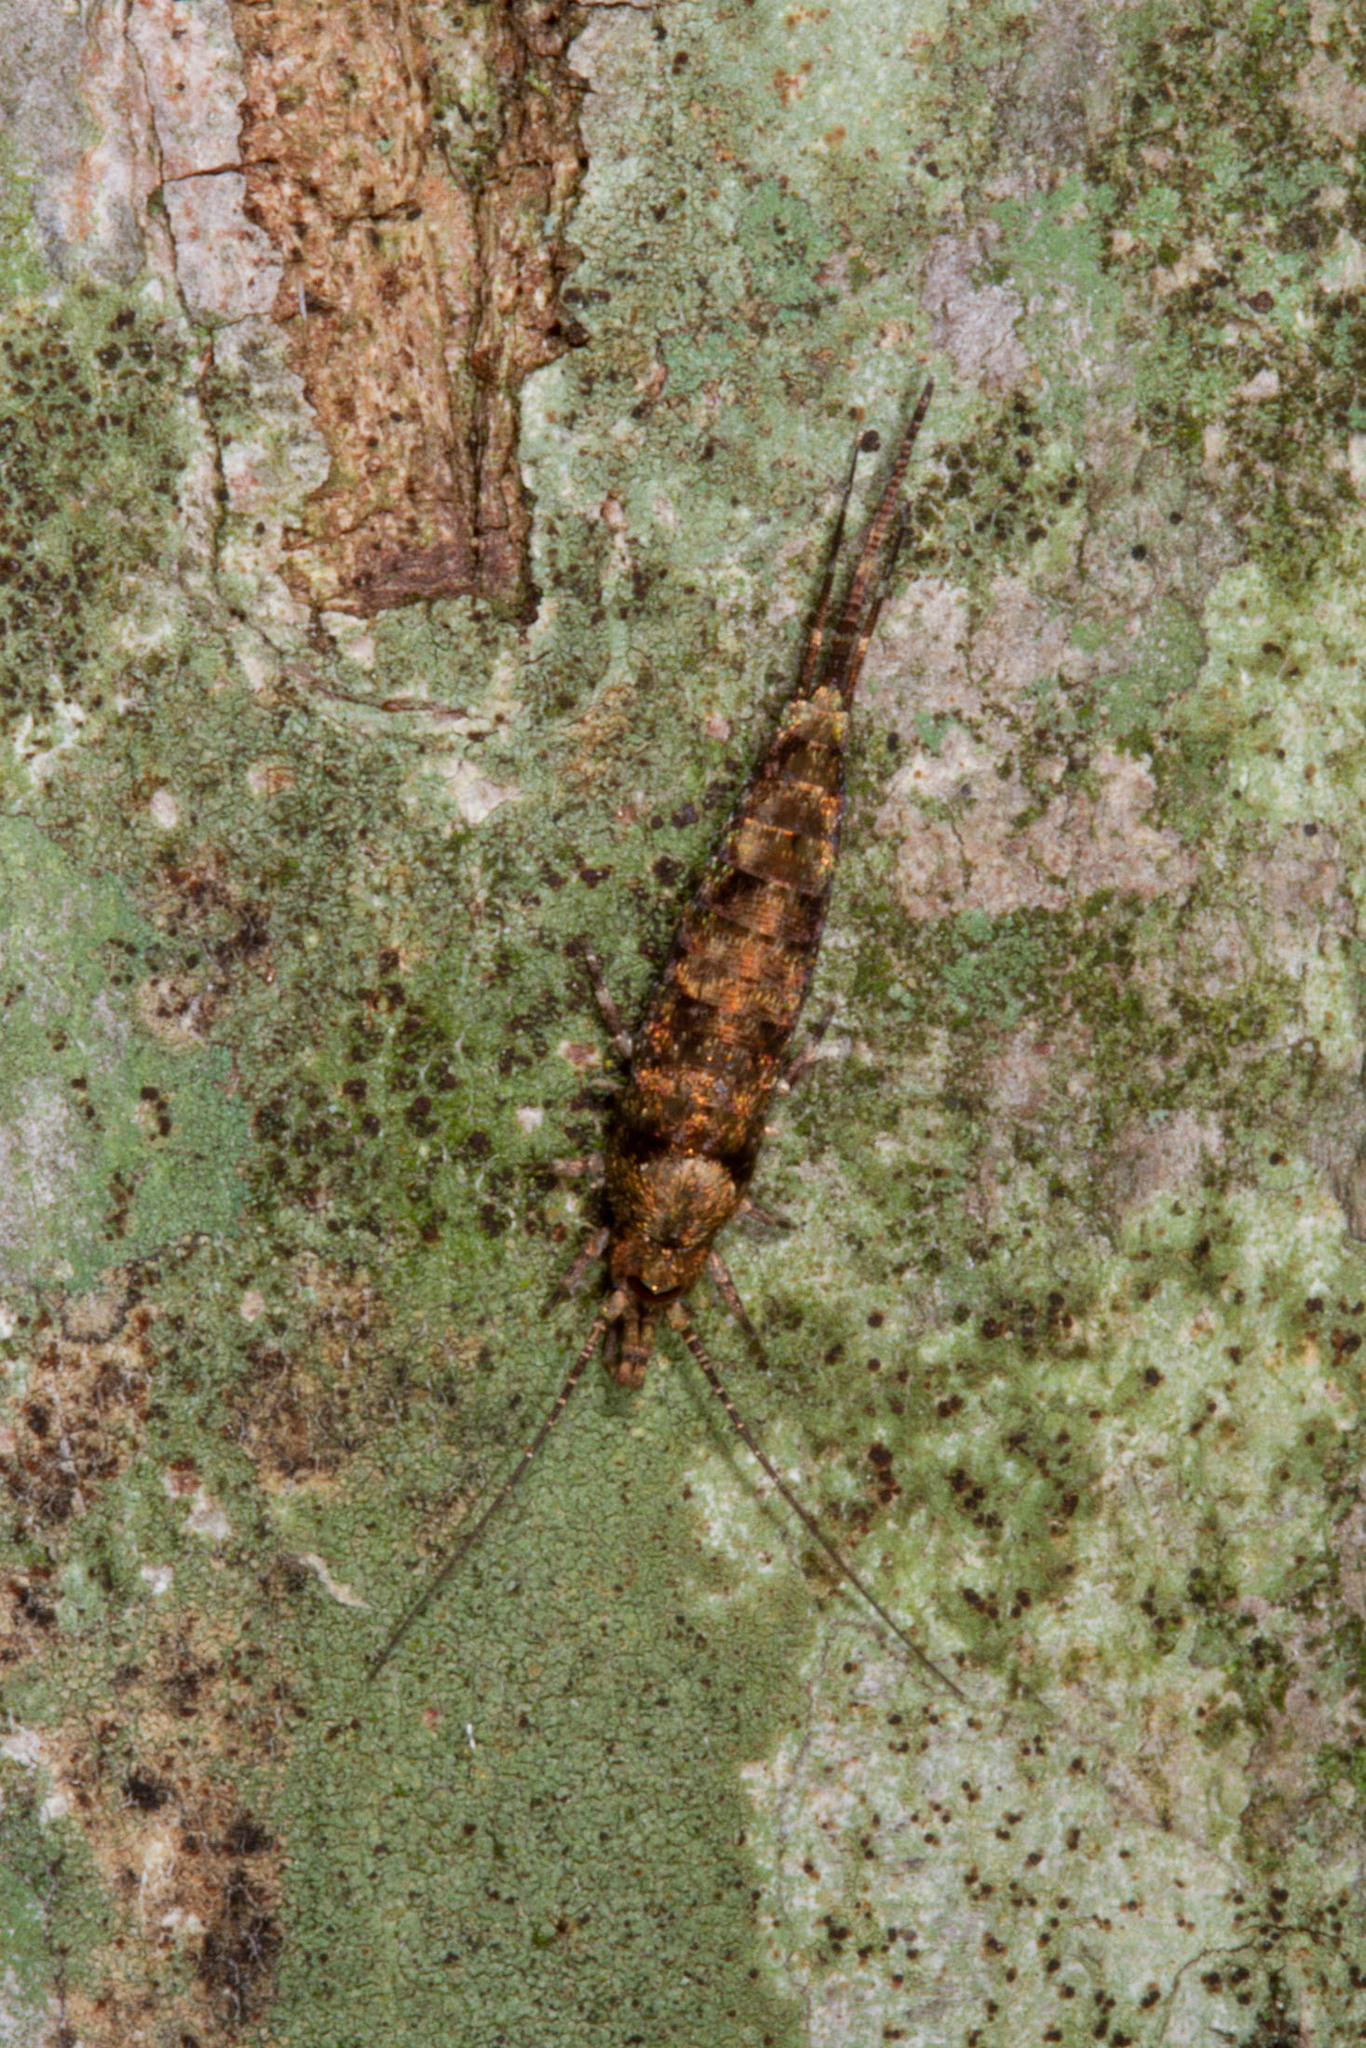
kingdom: Animalia
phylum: Arthropoda
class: Insecta
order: Archaeognatha
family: Machilidae
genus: Trigoniophthalmus
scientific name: Trigoniophthalmus alternatus
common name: Jumping bristletail
